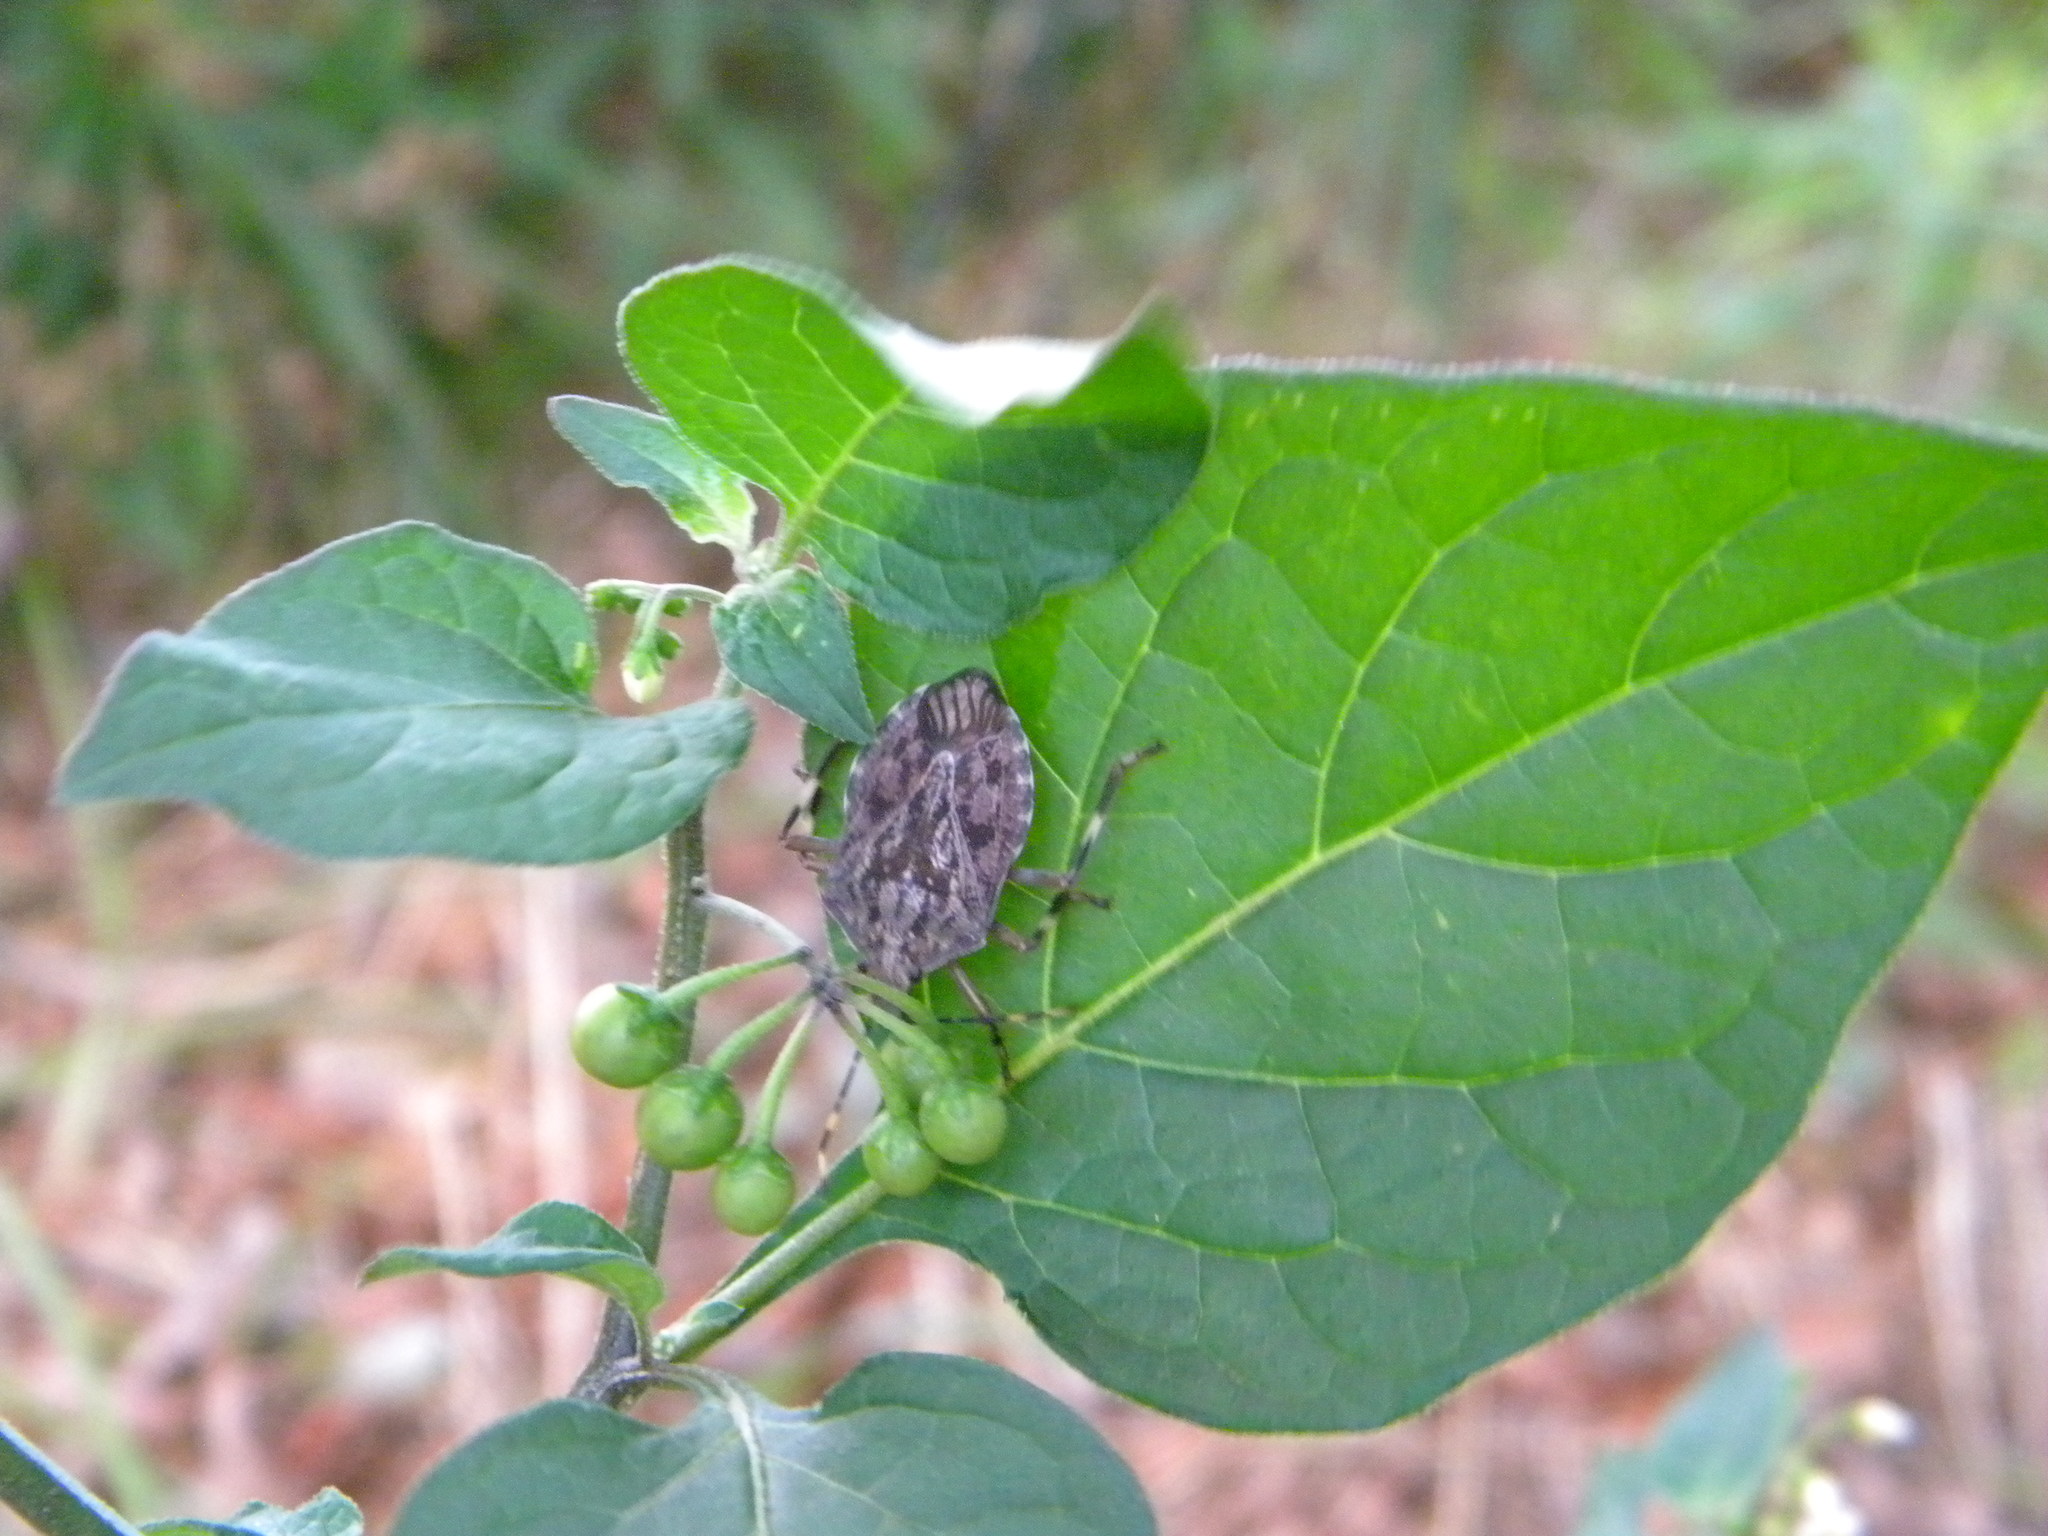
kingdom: Animalia
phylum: Arthropoda
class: Insecta
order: Hemiptera
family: Pentatomidae
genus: Coenomorpha
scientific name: Coenomorpha nervosa
